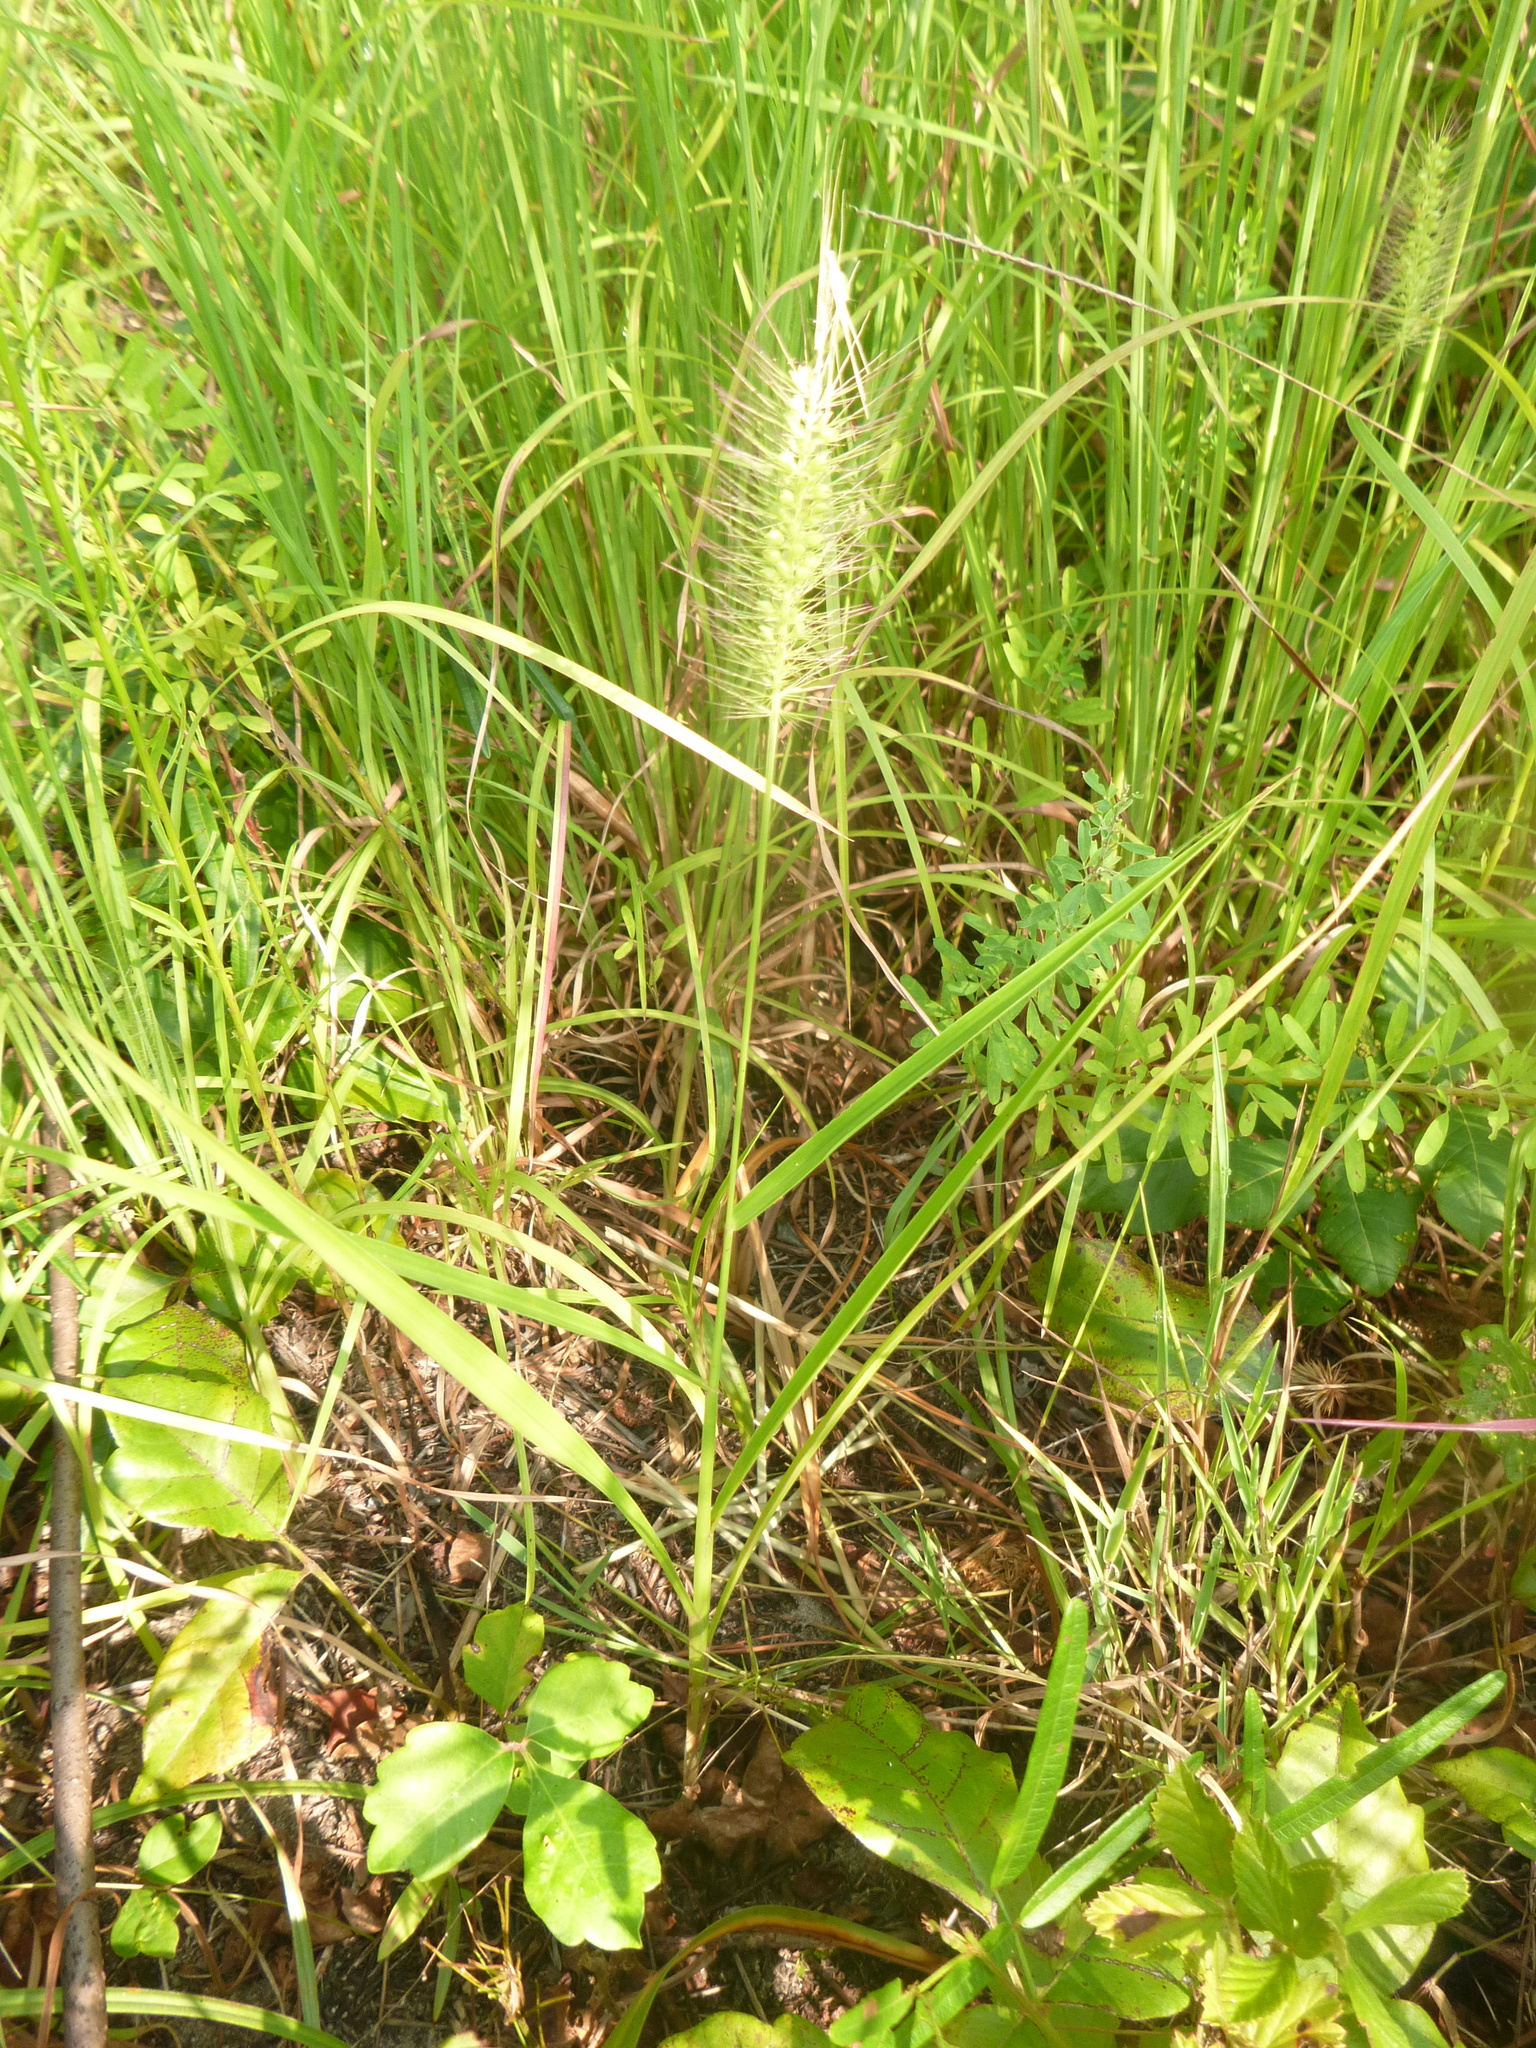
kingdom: Plantae
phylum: Tracheophyta
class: Liliopsida
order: Poales
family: Poaceae
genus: Setaria
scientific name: Setaria corrugata
